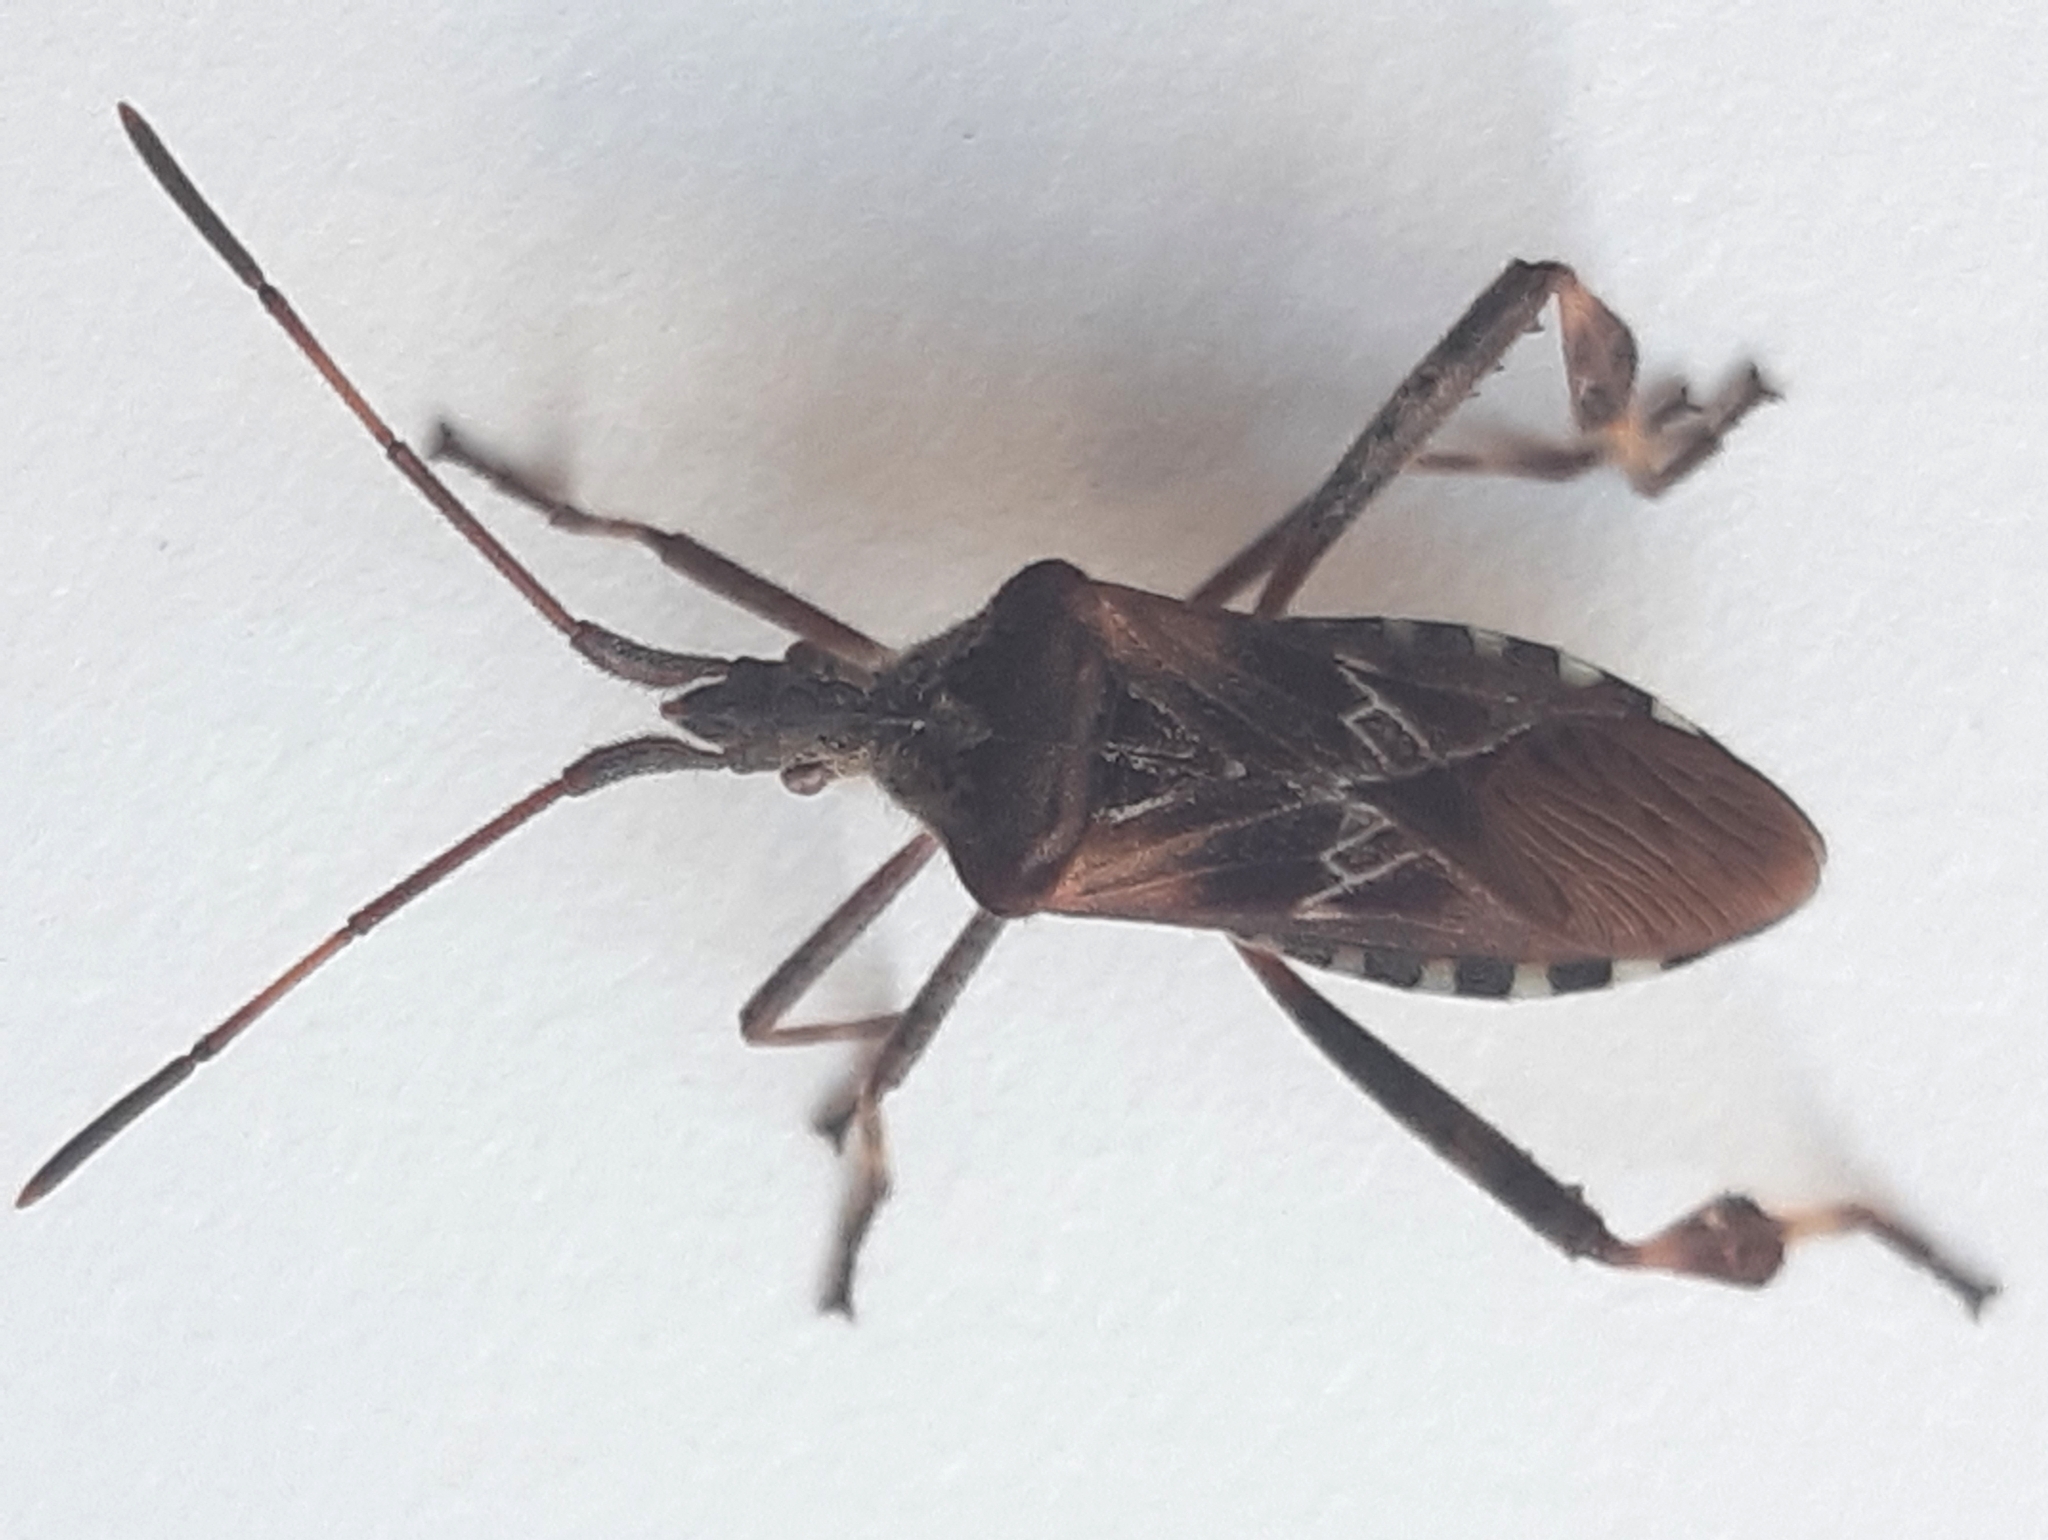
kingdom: Animalia
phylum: Arthropoda
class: Insecta
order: Hemiptera
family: Coreidae
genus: Leptoglossus
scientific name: Leptoglossus occidentalis
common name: Western conifer-seed bug
